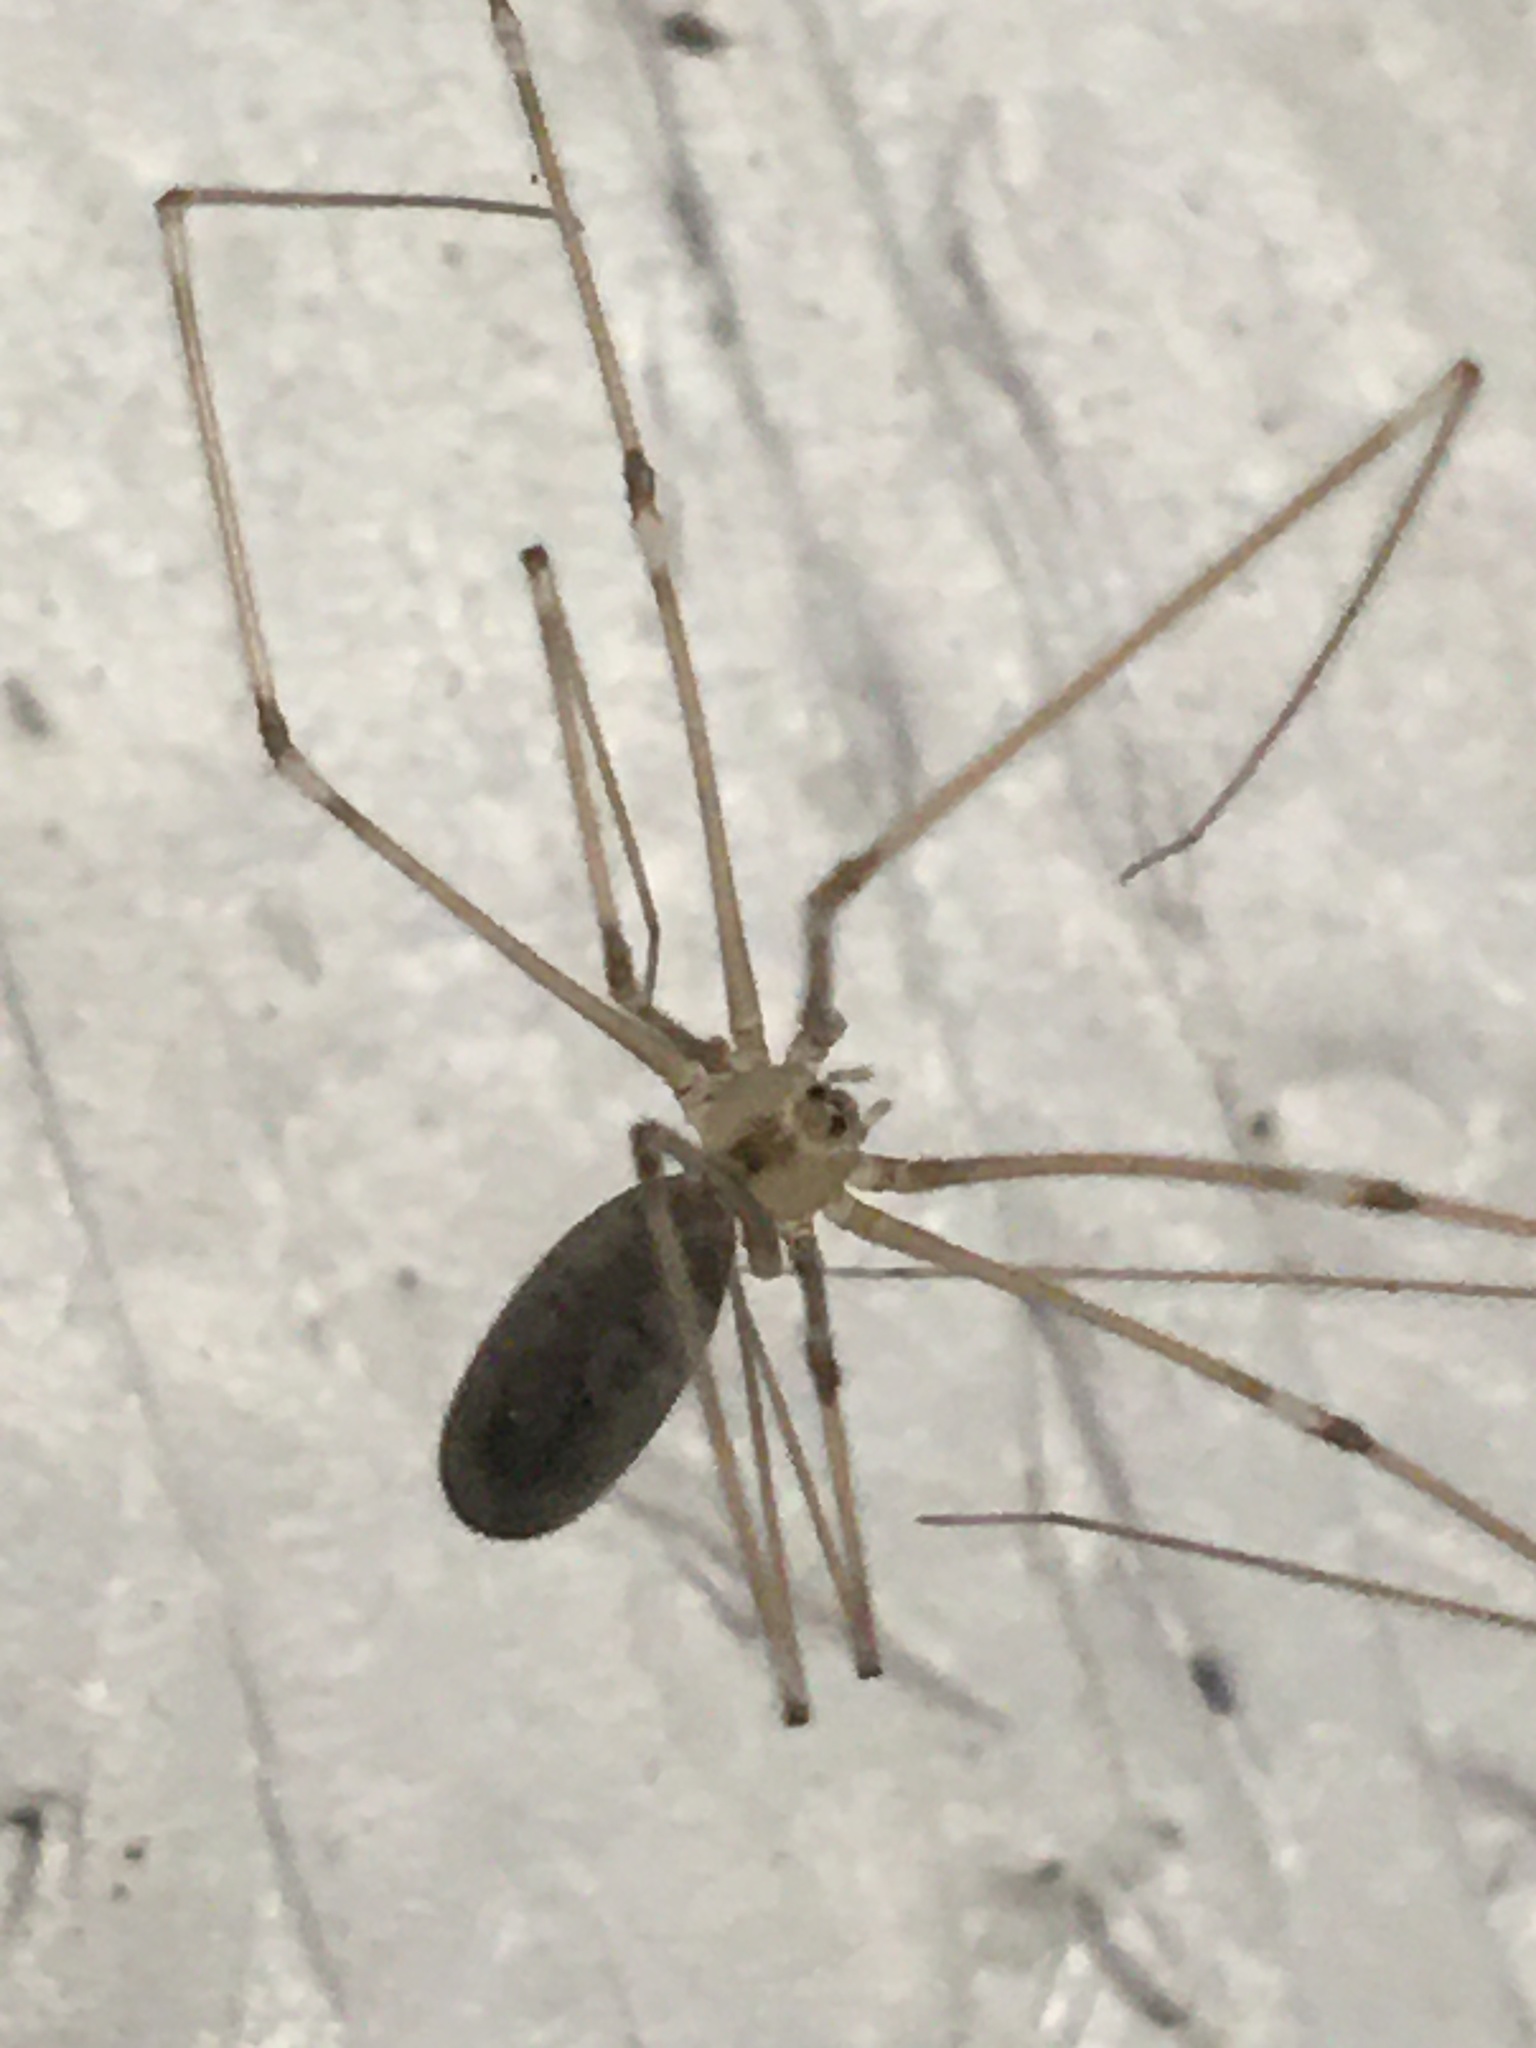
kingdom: Animalia
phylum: Arthropoda
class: Arachnida
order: Araneae
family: Pholcidae
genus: Pholcus
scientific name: Pholcus phalangioides
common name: Longbodied cellar spider
